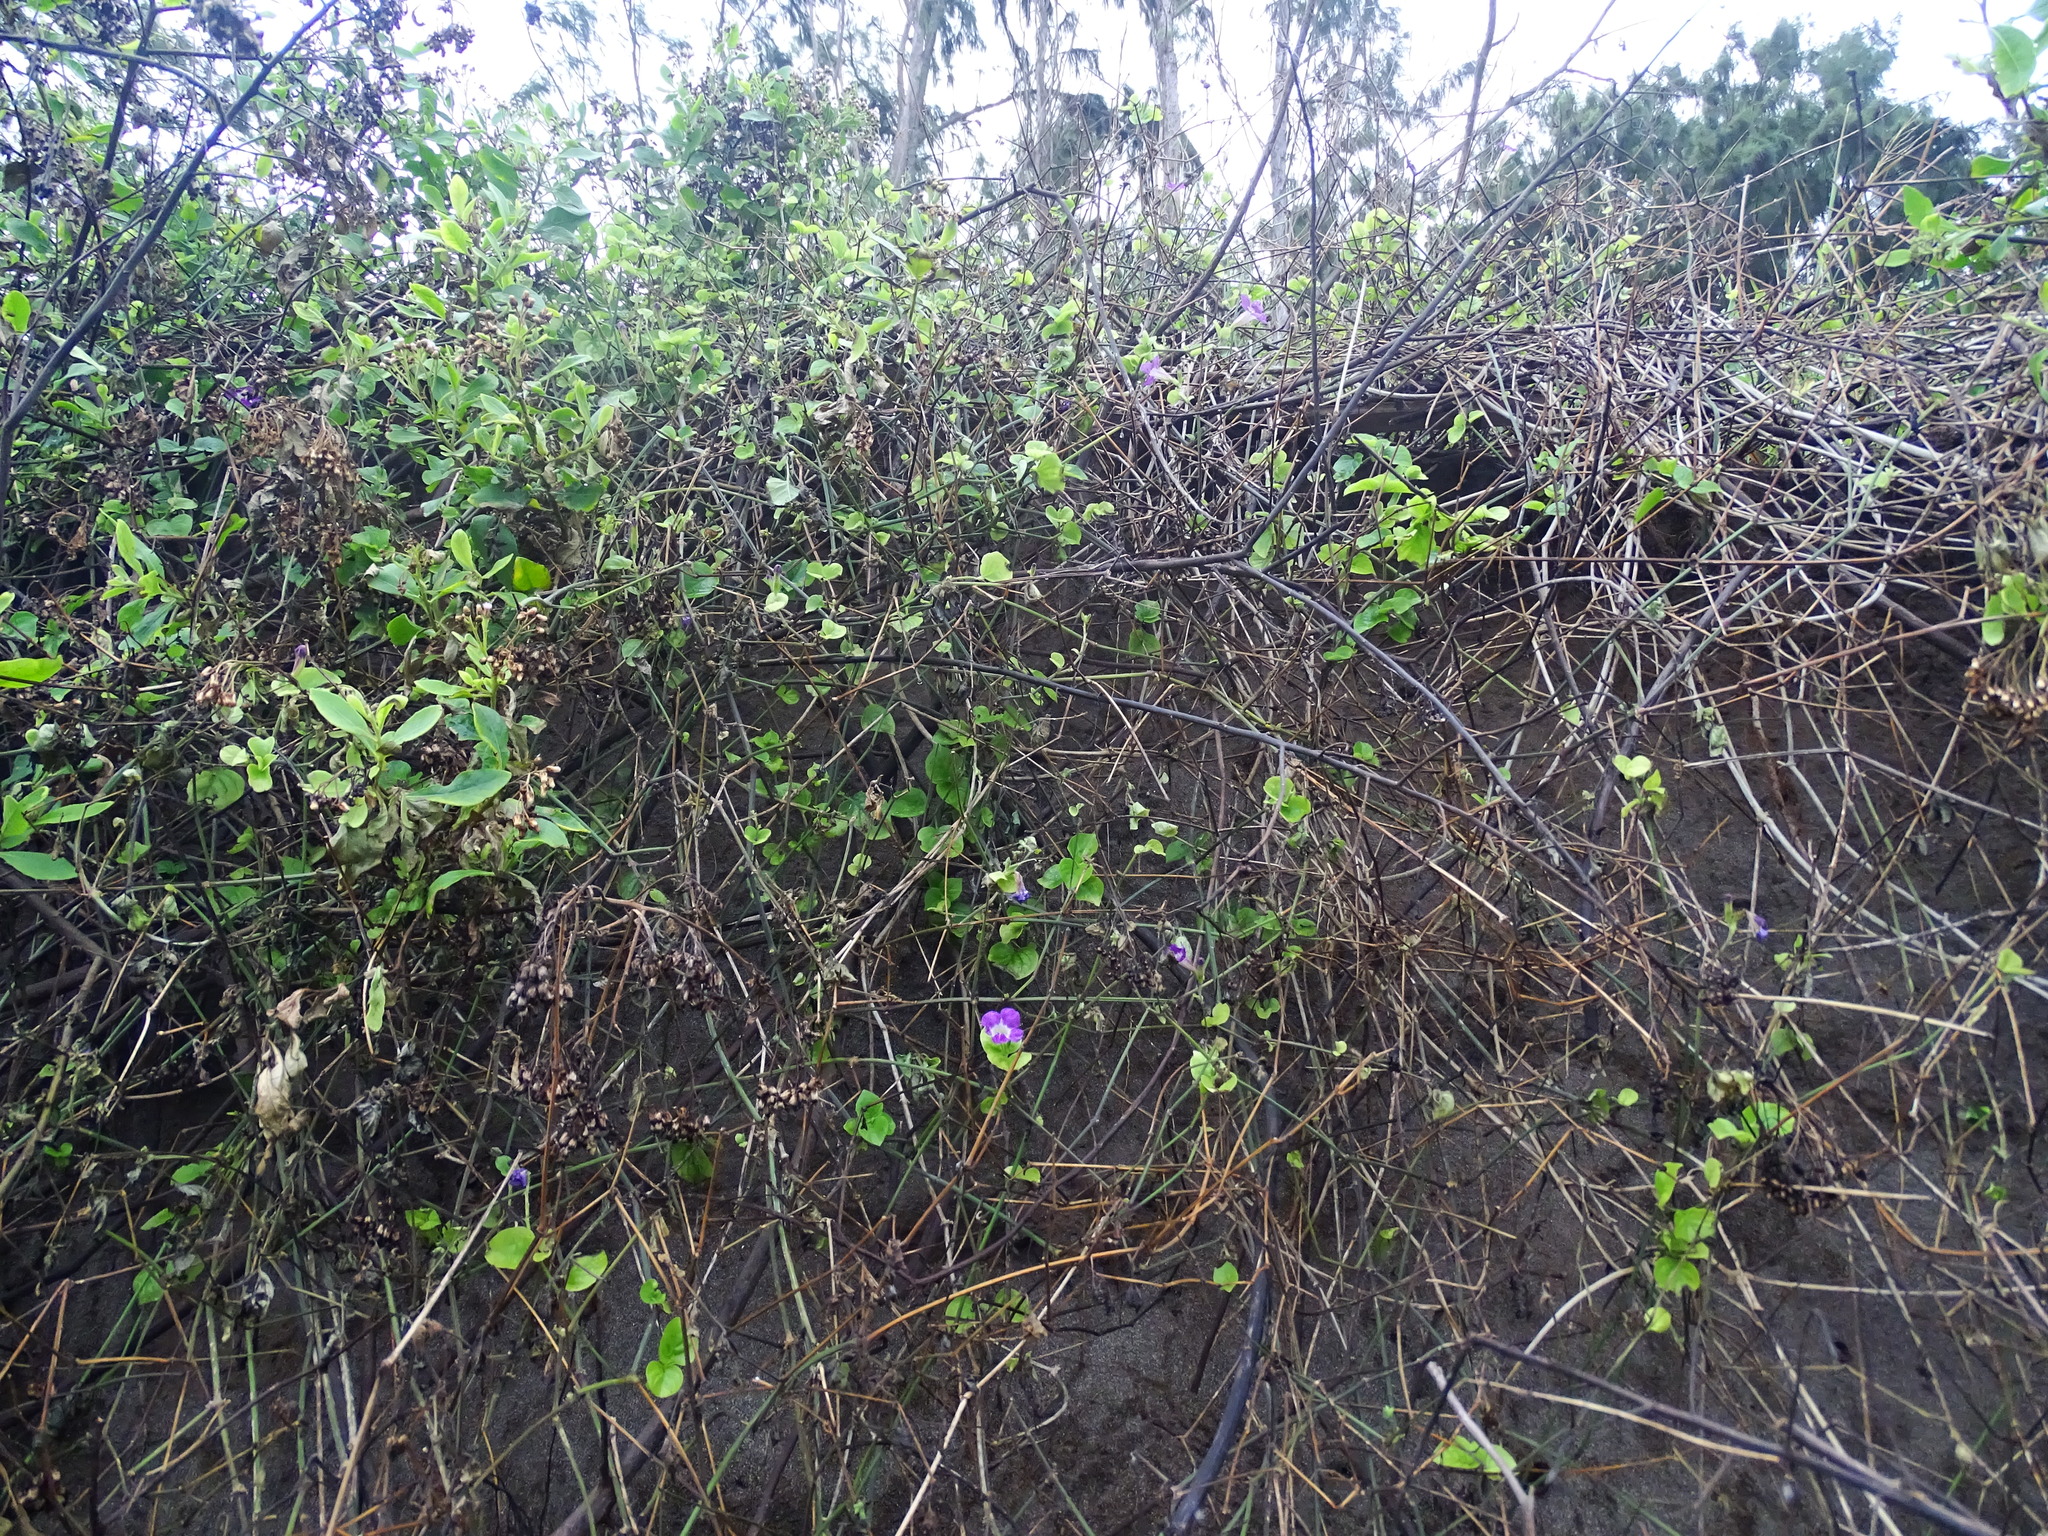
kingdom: Plantae
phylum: Tracheophyta
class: Magnoliopsida
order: Lamiales
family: Acanthaceae
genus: Asystasia
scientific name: Asystasia gangetica
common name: Chinese violet
